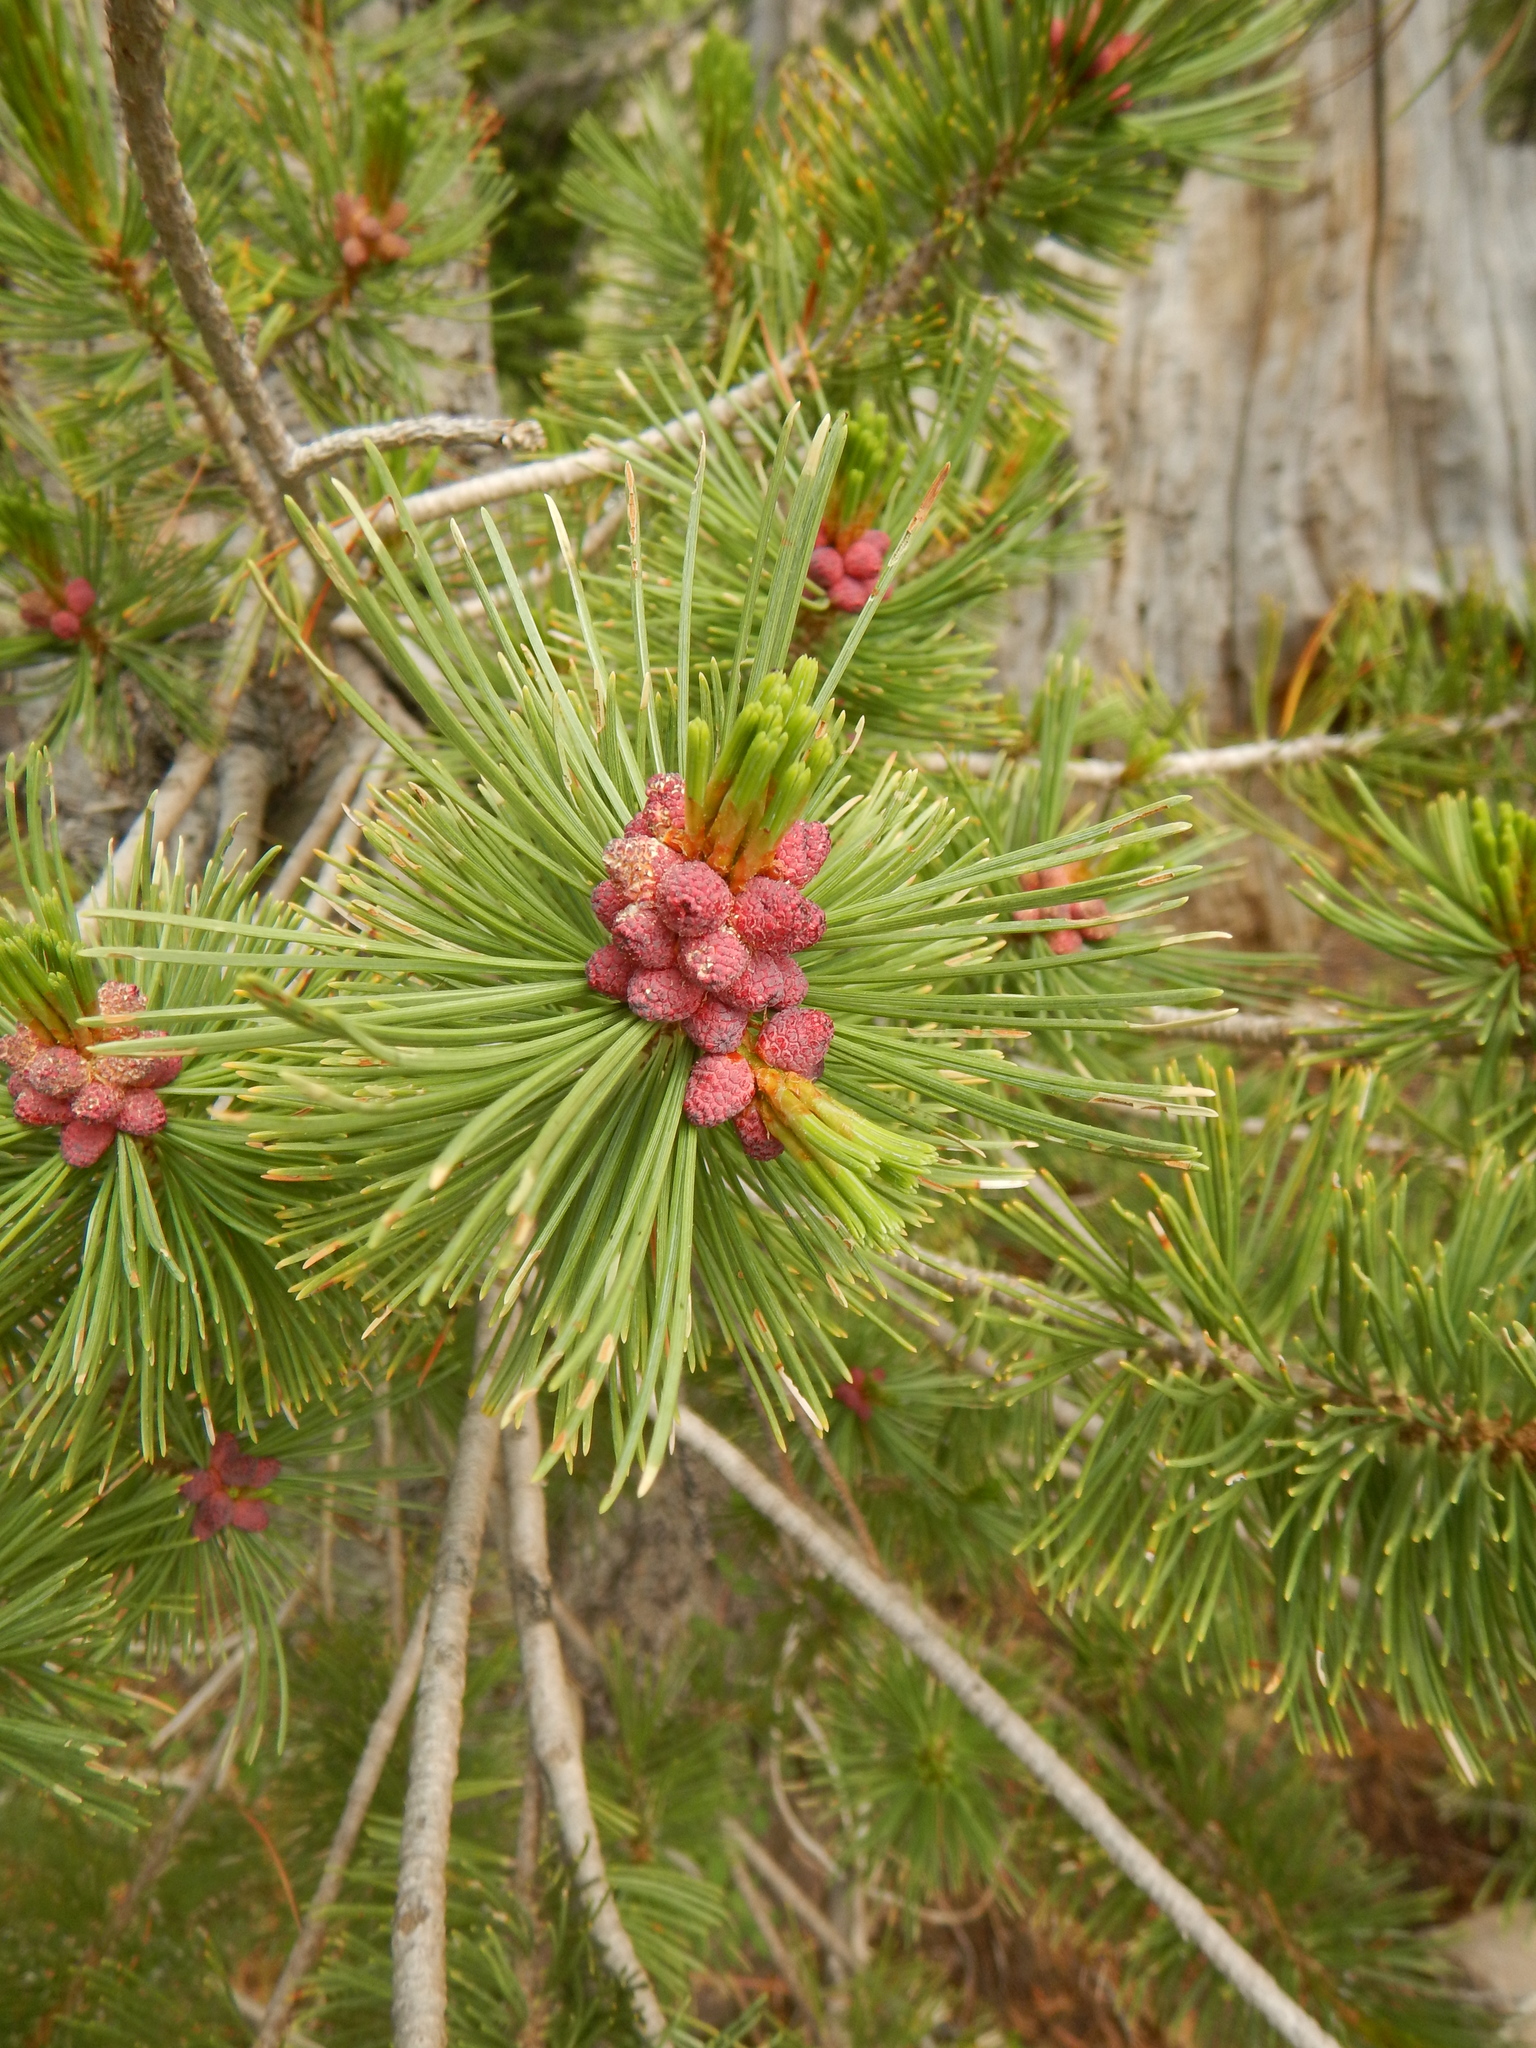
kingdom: Plantae
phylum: Tracheophyta
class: Pinopsida
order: Pinales
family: Pinaceae
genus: Pinus
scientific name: Pinus albicaulis
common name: Whitebark pine
